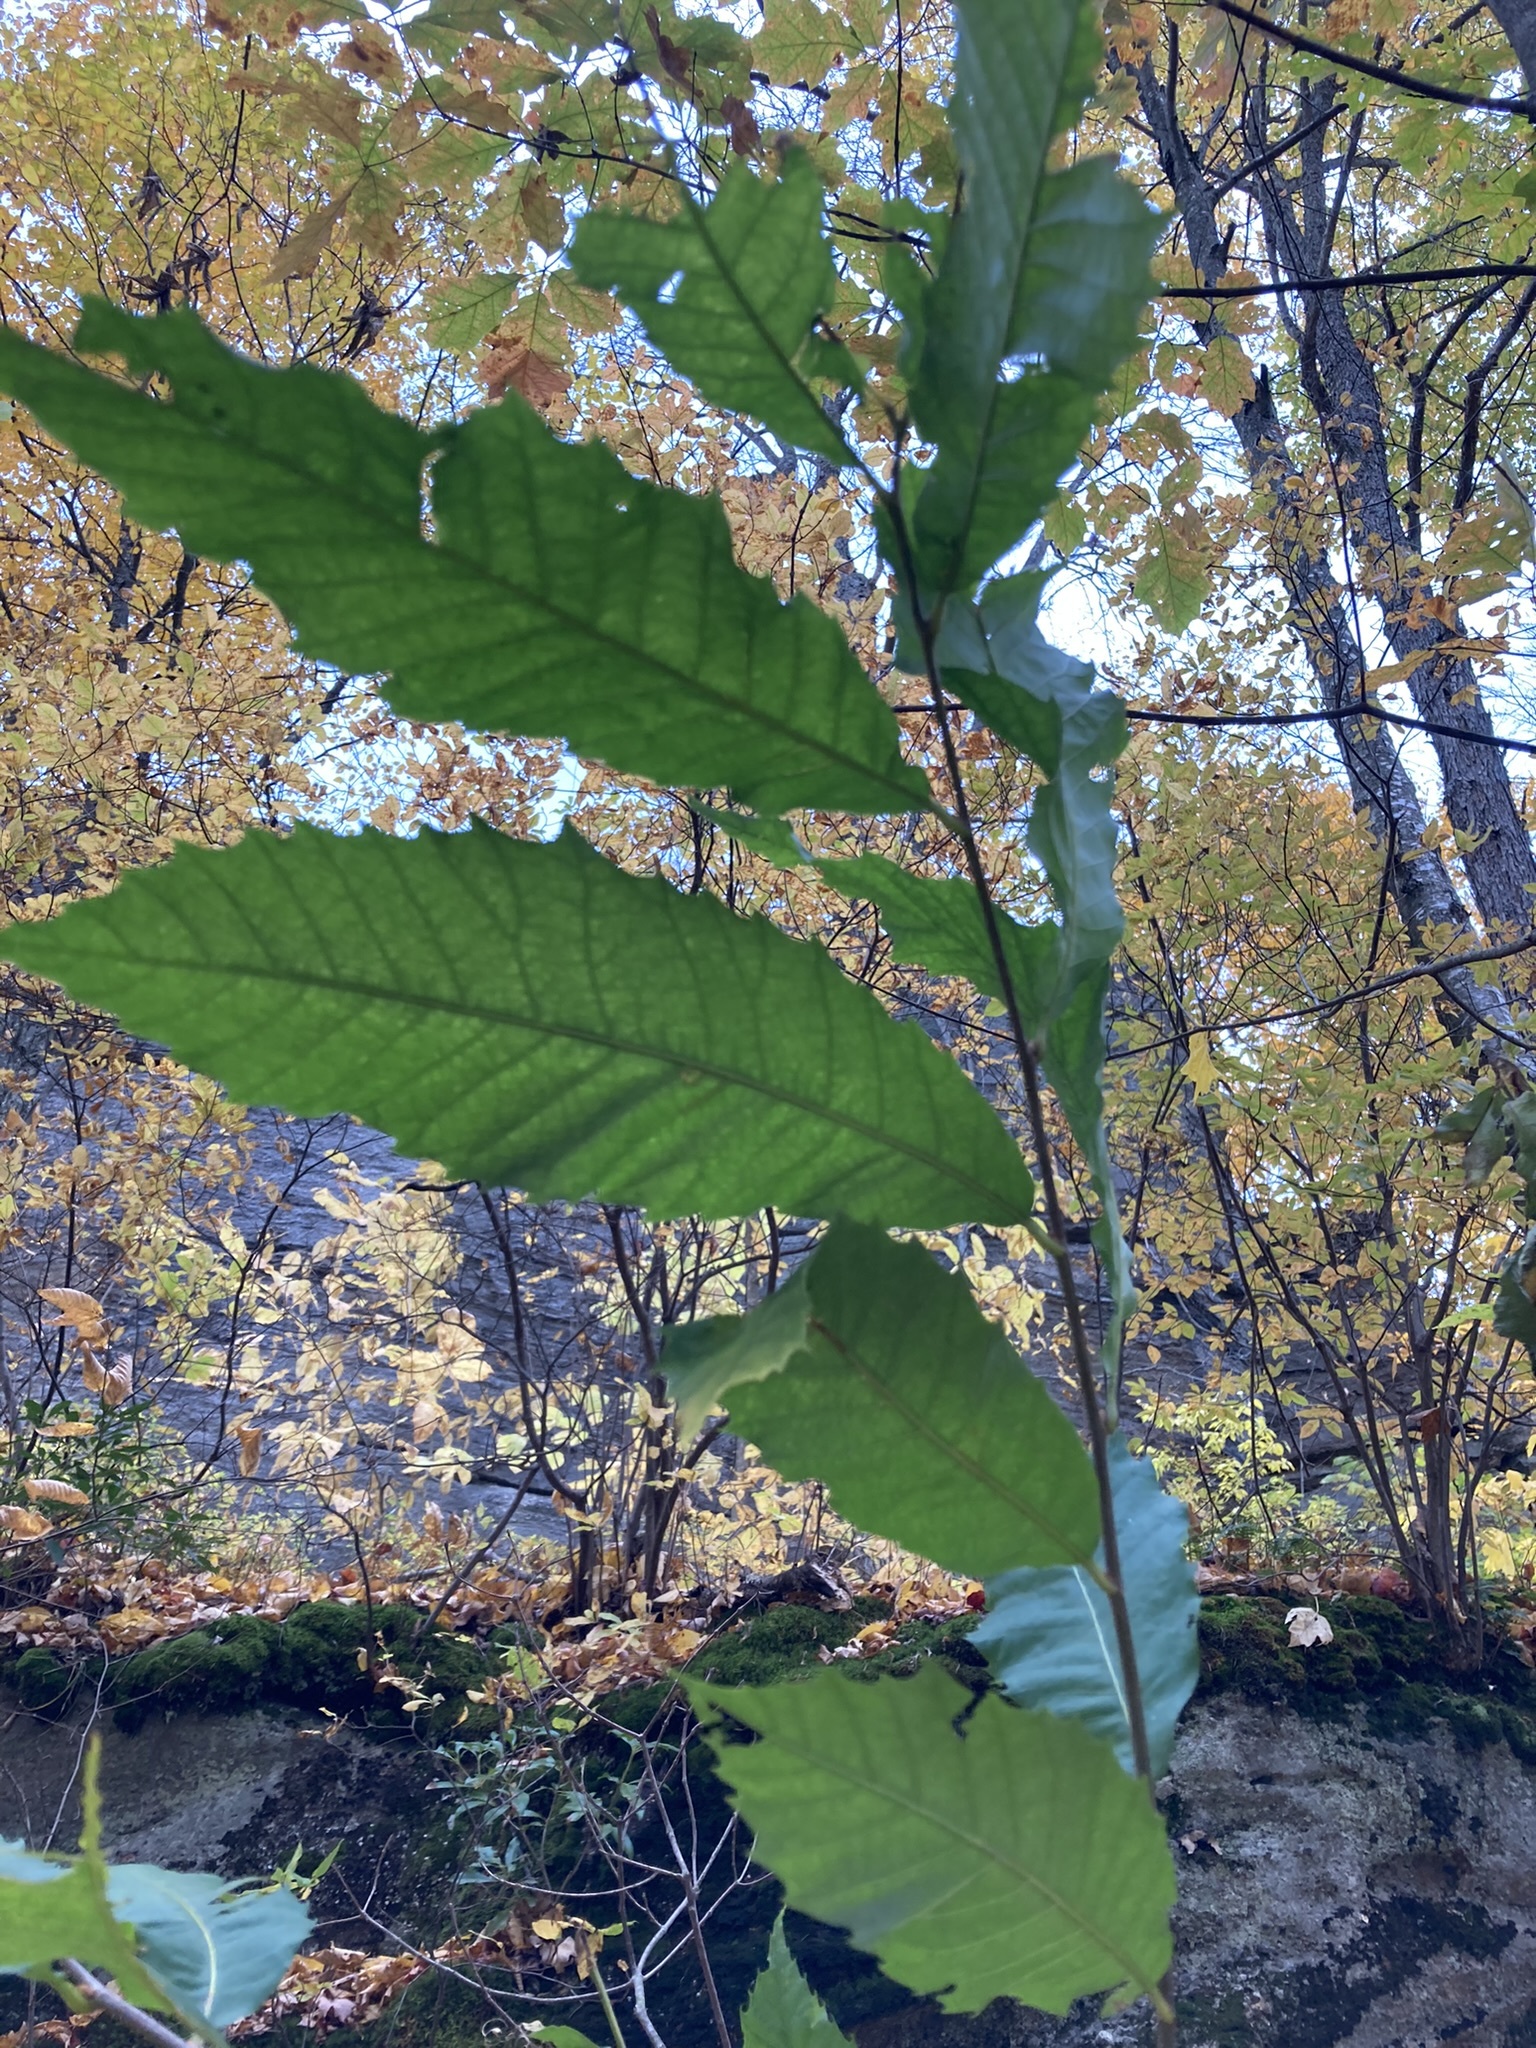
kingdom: Plantae
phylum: Tracheophyta
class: Magnoliopsida
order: Fagales
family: Fagaceae
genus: Castanea
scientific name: Castanea dentata
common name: American chestnut
